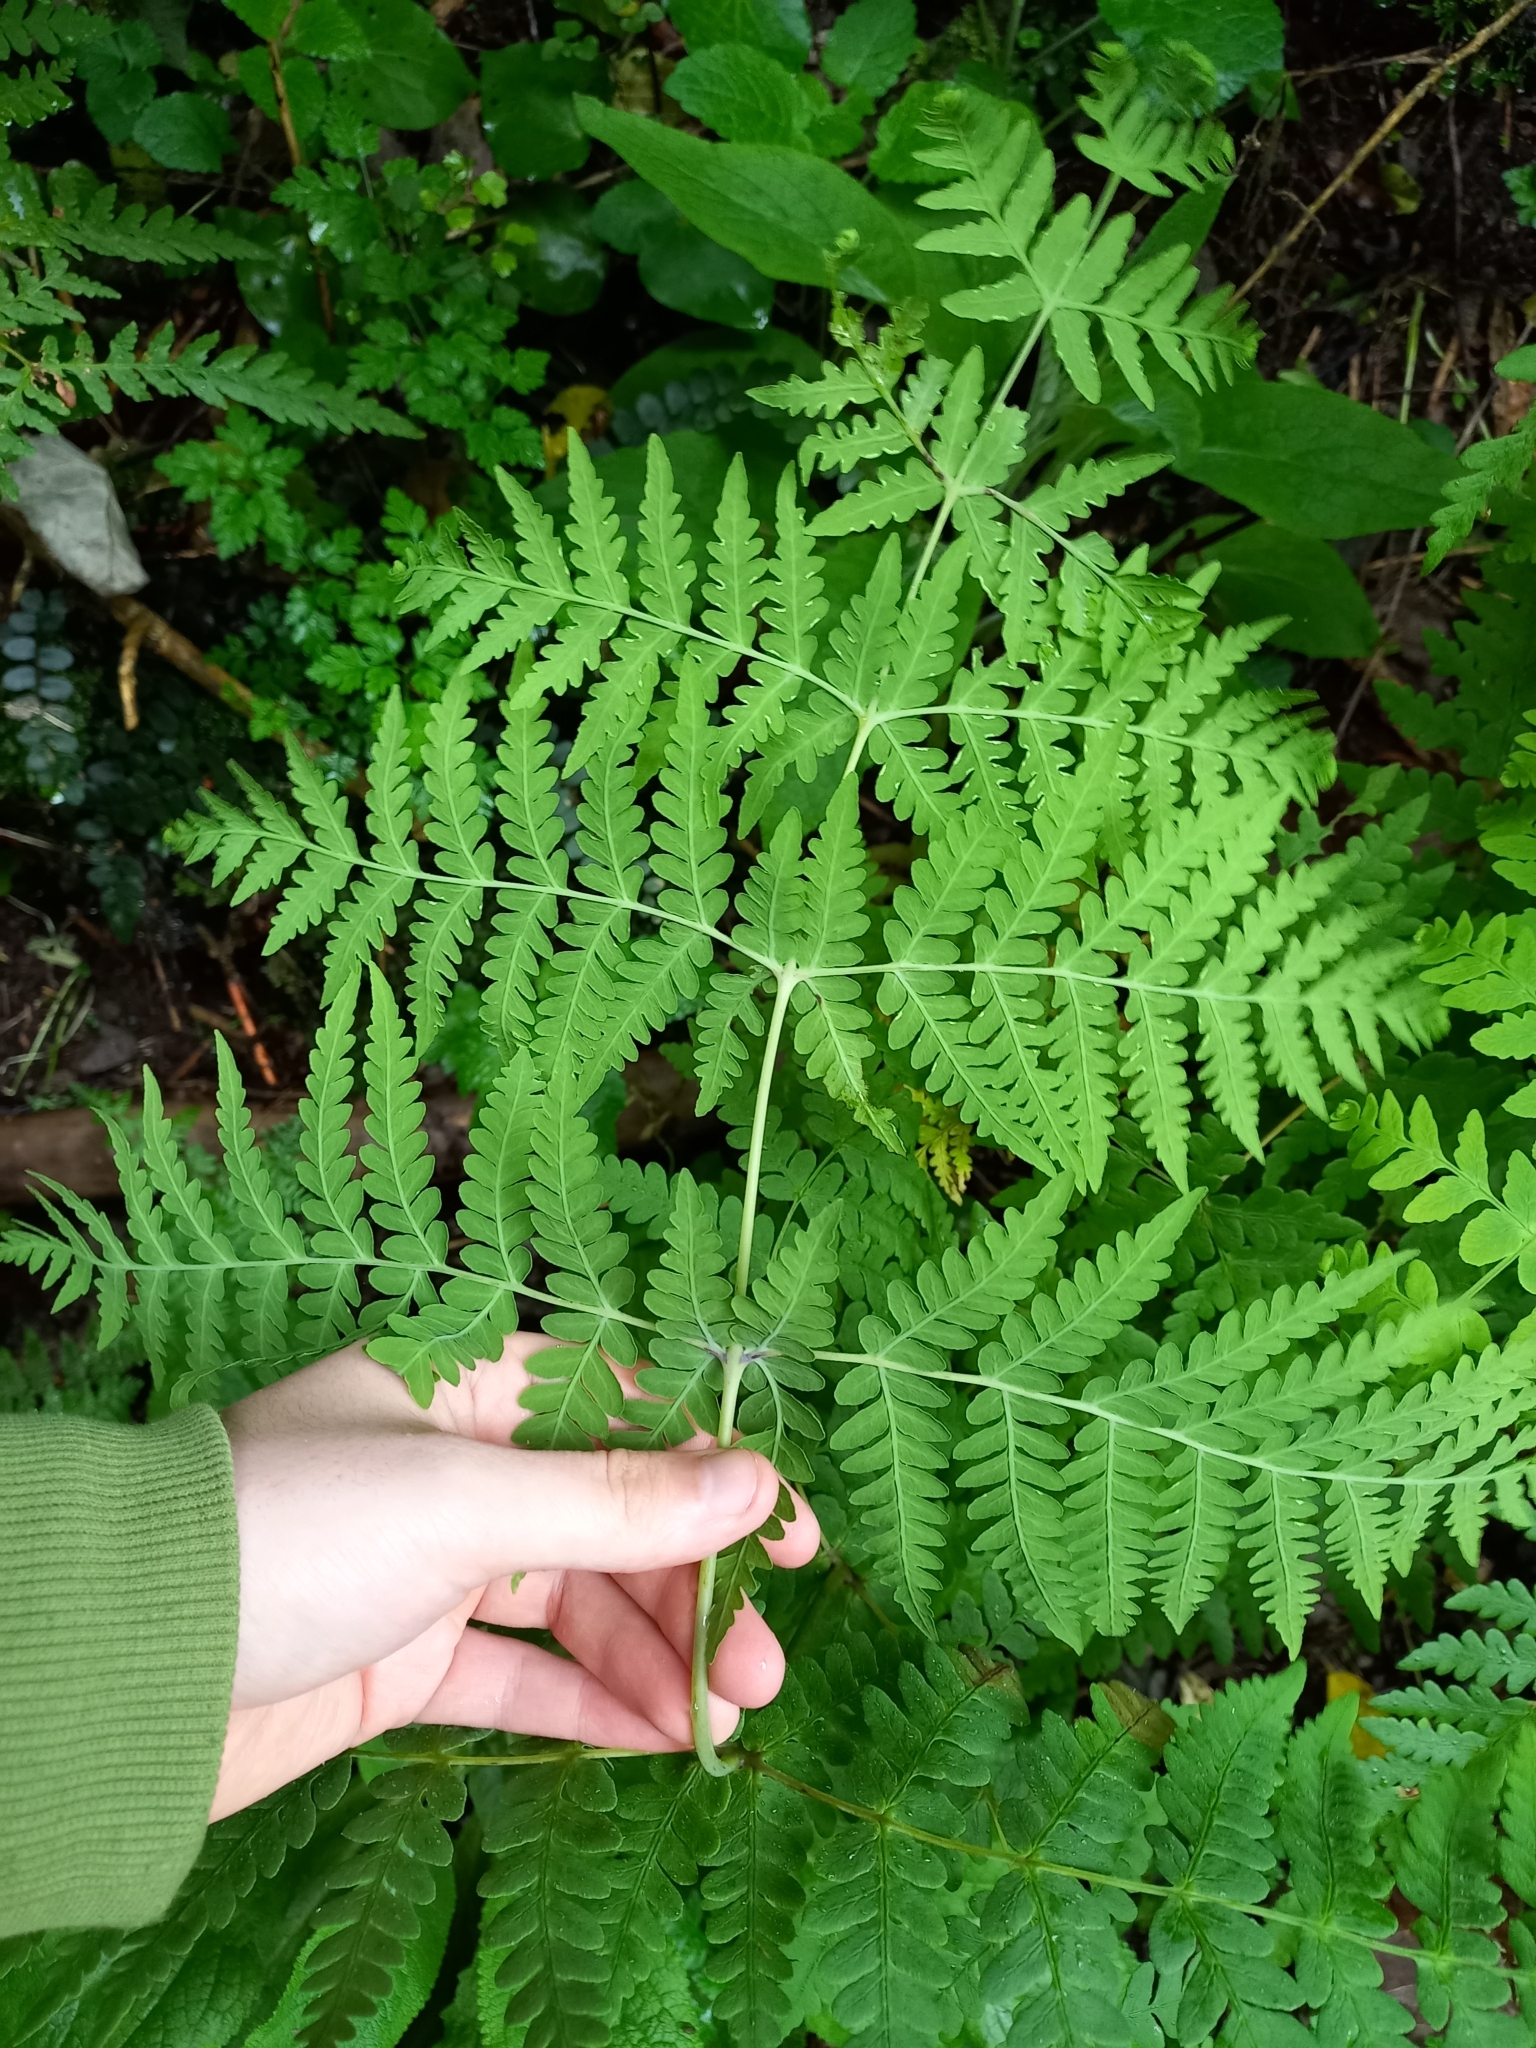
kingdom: Plantae
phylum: Tracheophyta
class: Polypodiopsida
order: Polypodiales
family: Dennstaedtiaceae
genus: Histiopteris
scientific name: Histiopteris incisa
